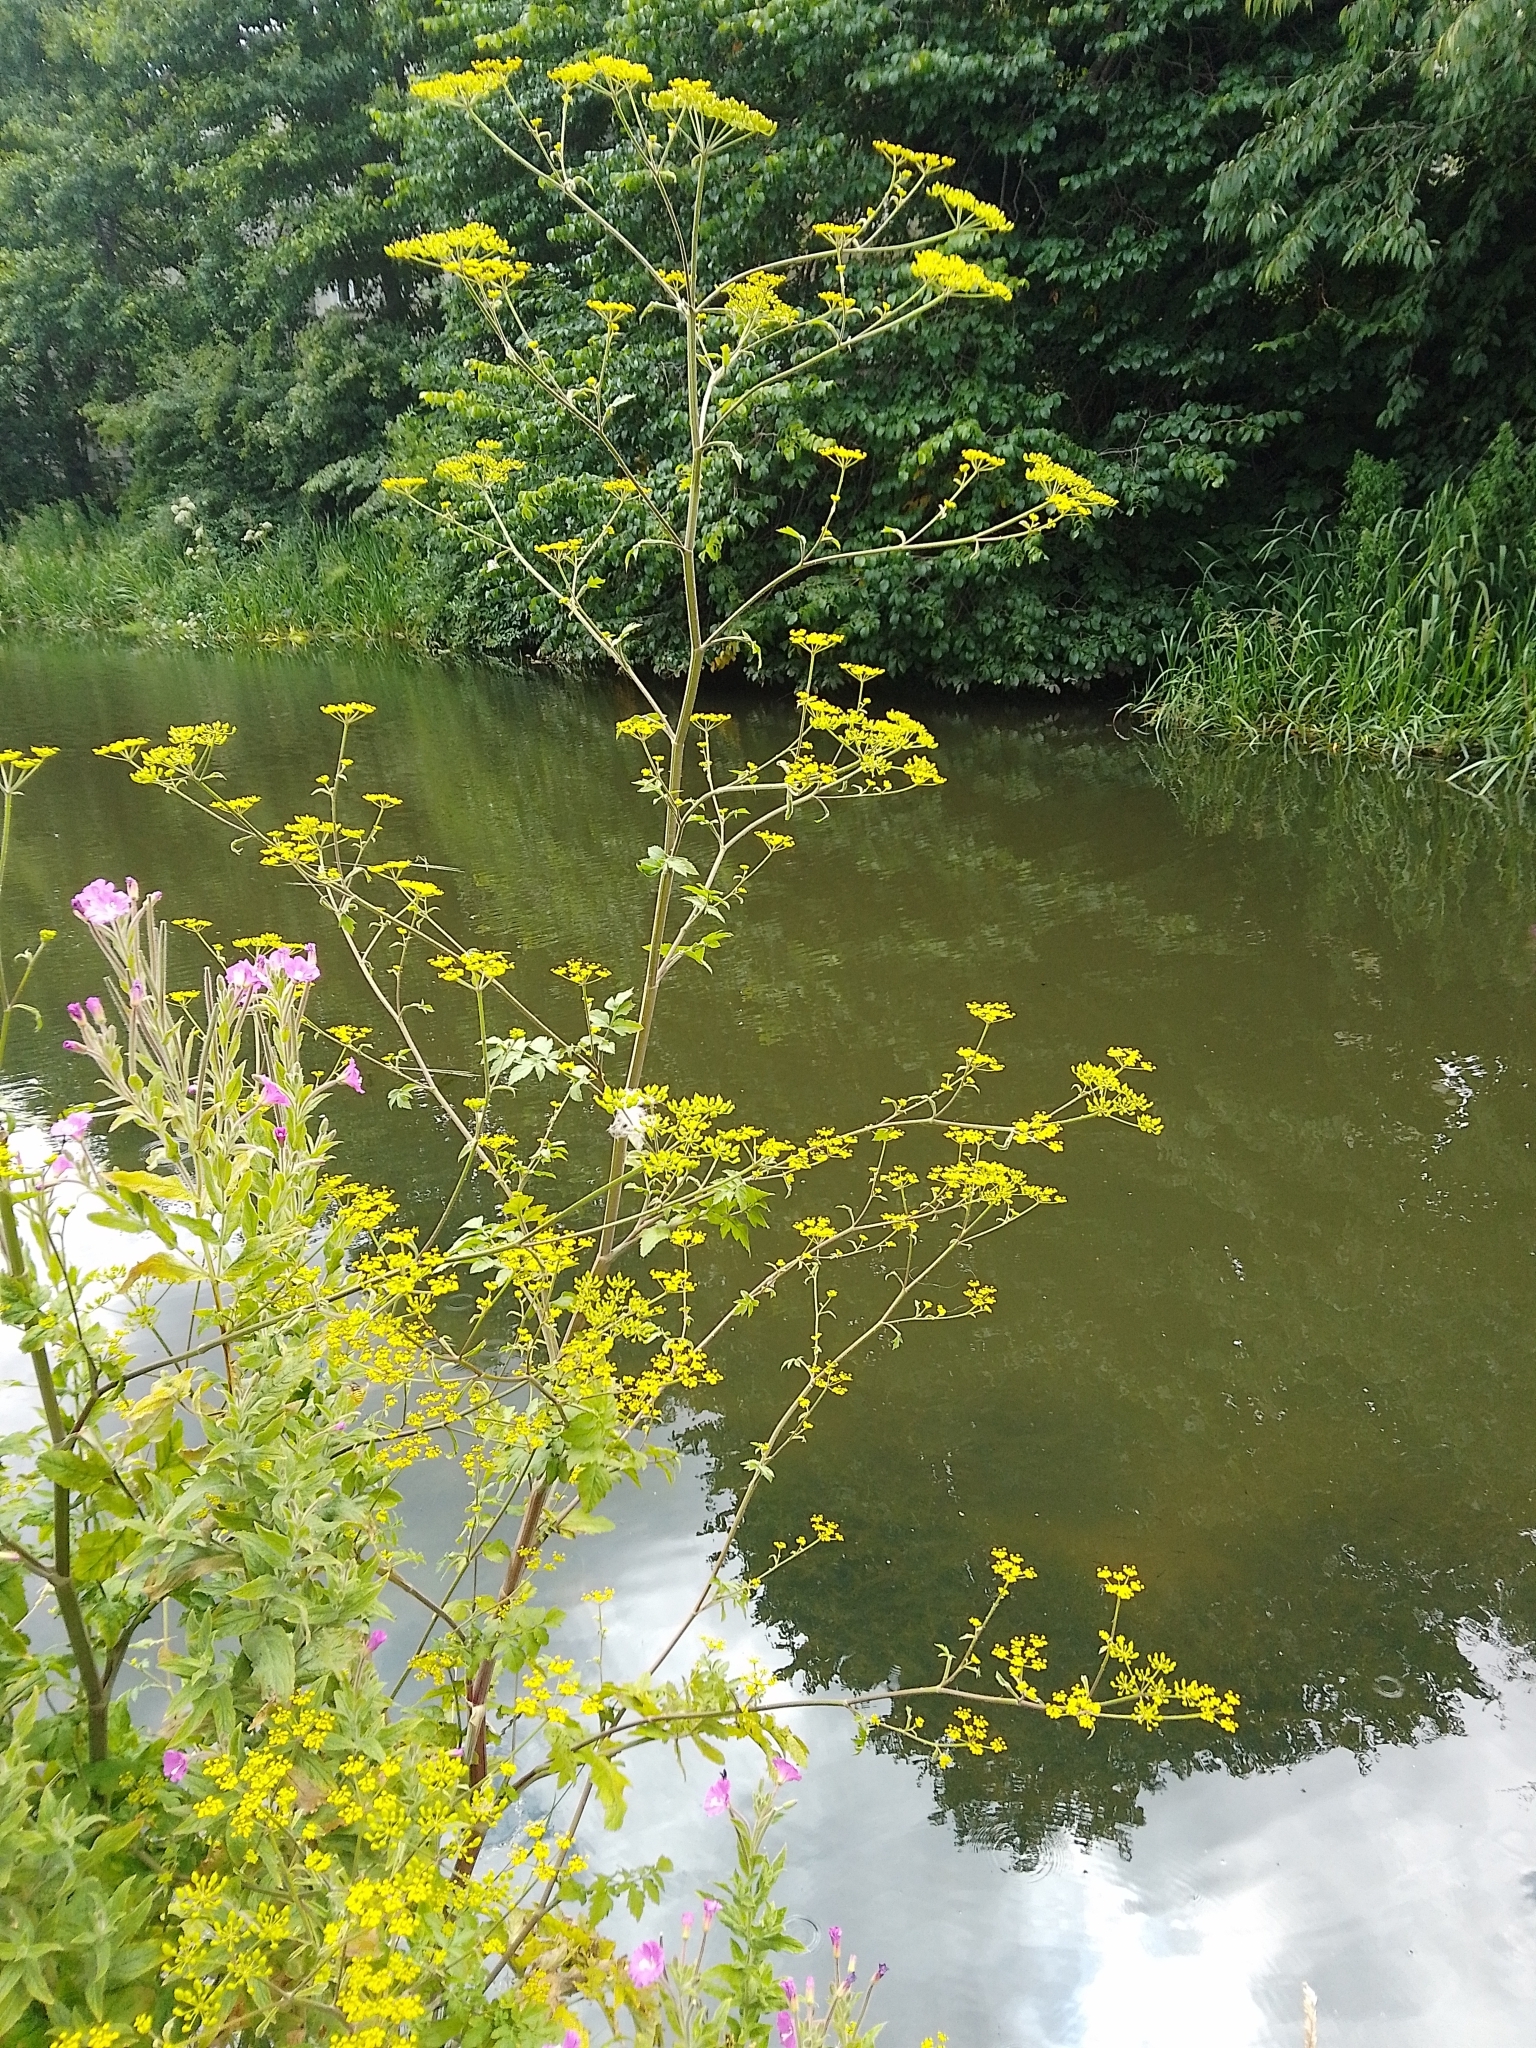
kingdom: Plantae
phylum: Tracheophyta
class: Magnoliopsida
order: Apiales
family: Apiaceae
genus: Pastinaca
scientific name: Pastinaca sativa
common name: Wild parsnip
